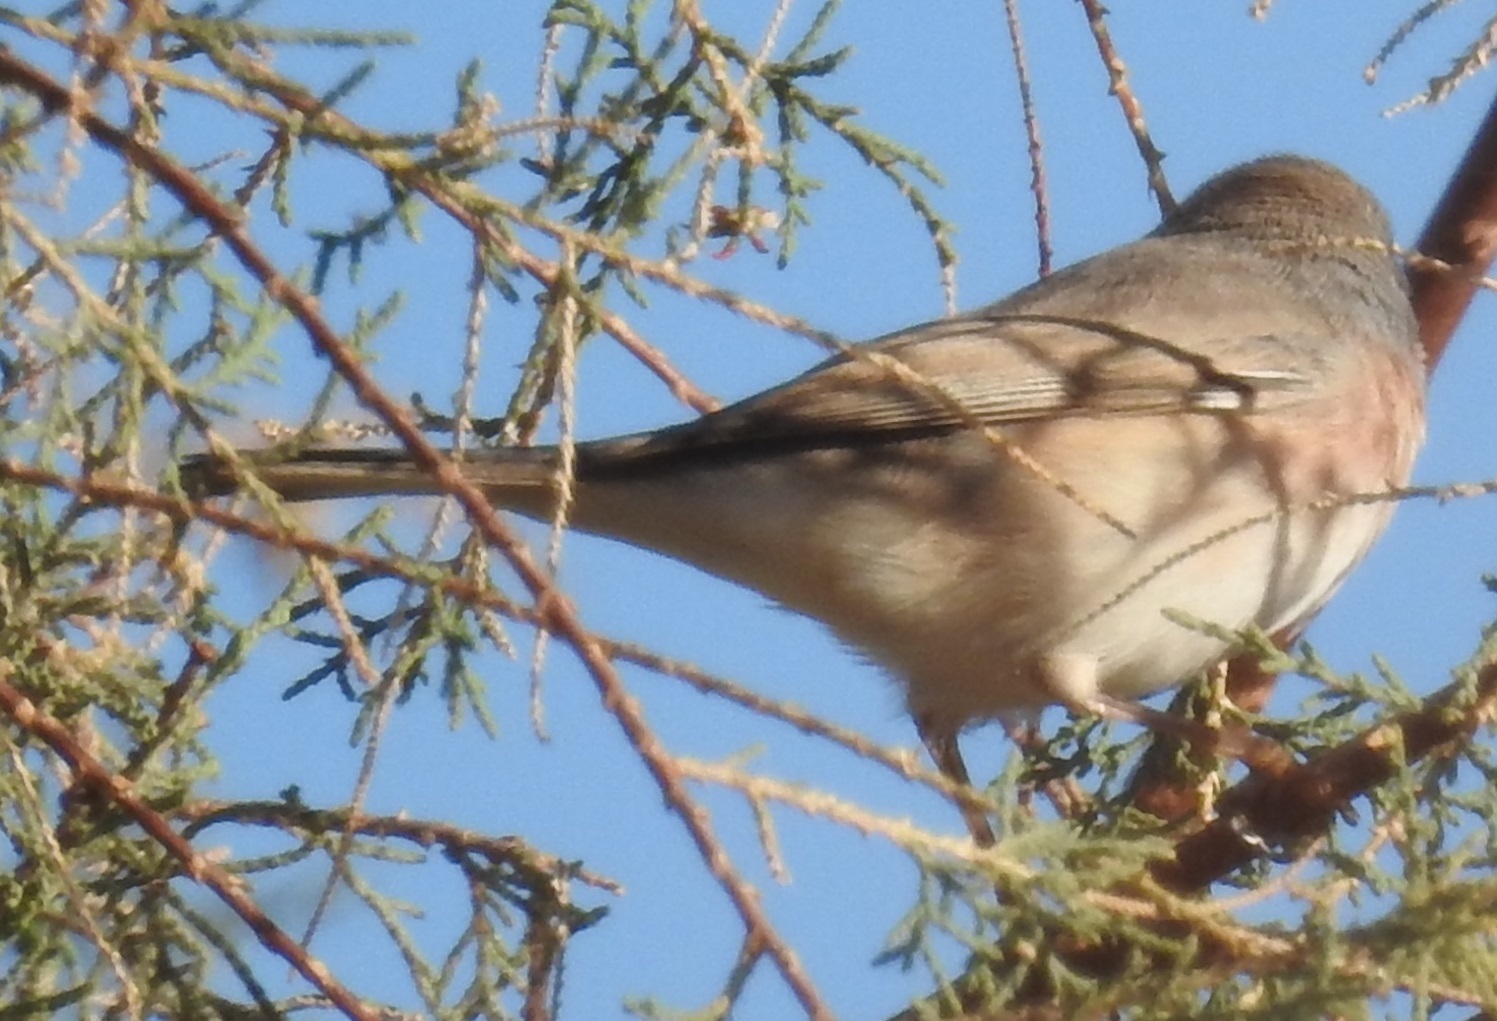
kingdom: Animalia
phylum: Chordata
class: Aves
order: Passeriformes
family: Sylviidae
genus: Curruca
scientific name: Curruca subalpina
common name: Moltoni's warbler
